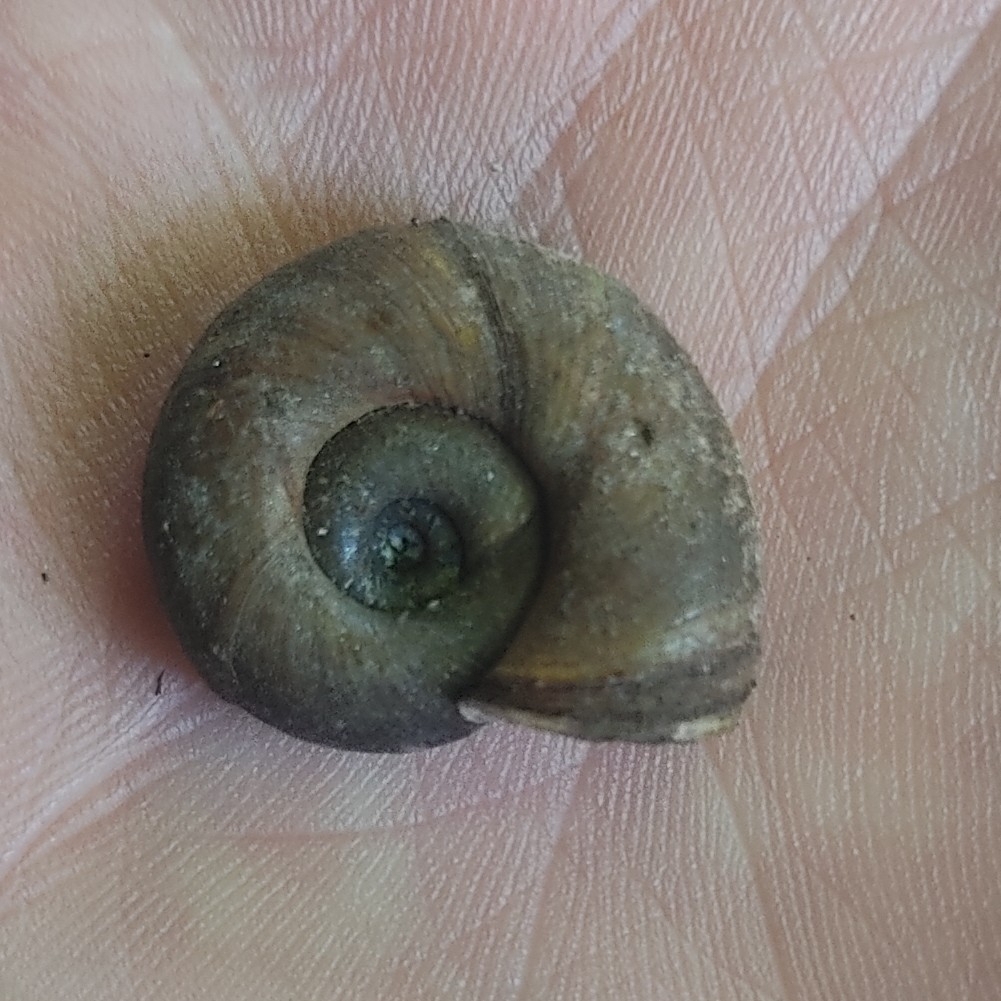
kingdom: Animalia
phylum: Mollusca
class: Gastropoda
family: Planorbidae
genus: Planorbarius
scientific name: Planorbarius corneus
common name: Great ramshorn
